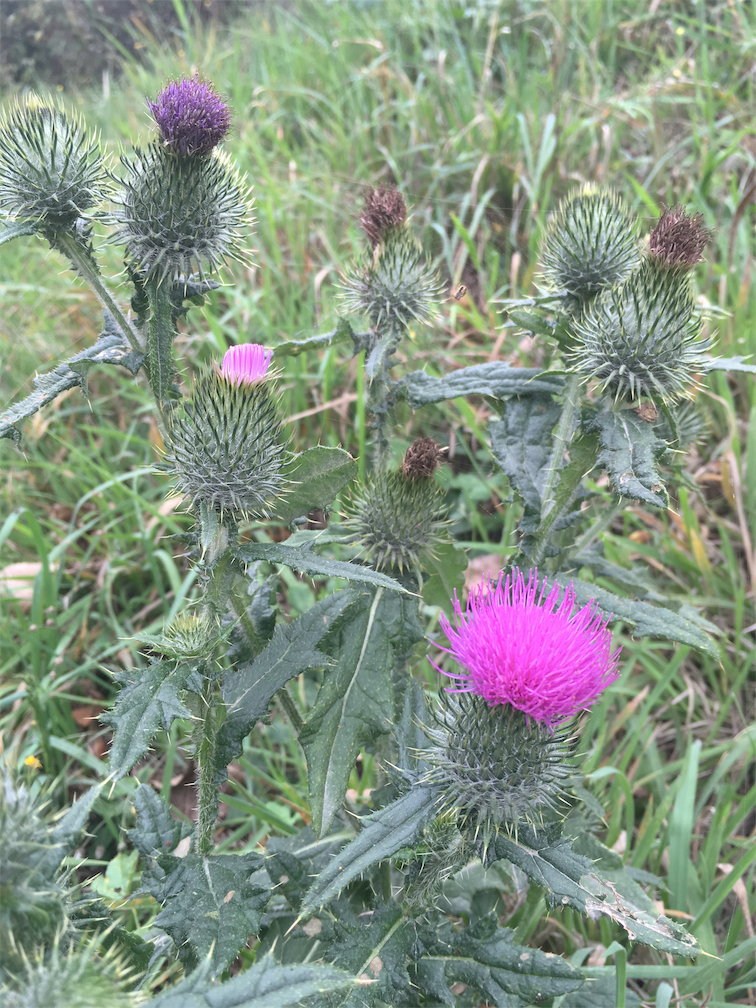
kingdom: Plantae
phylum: Tracheophyta
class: Magnoliopsida
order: Asterales
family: Asteraceae
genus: Cirsium
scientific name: Cirsium vulgare
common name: Bull thistle
